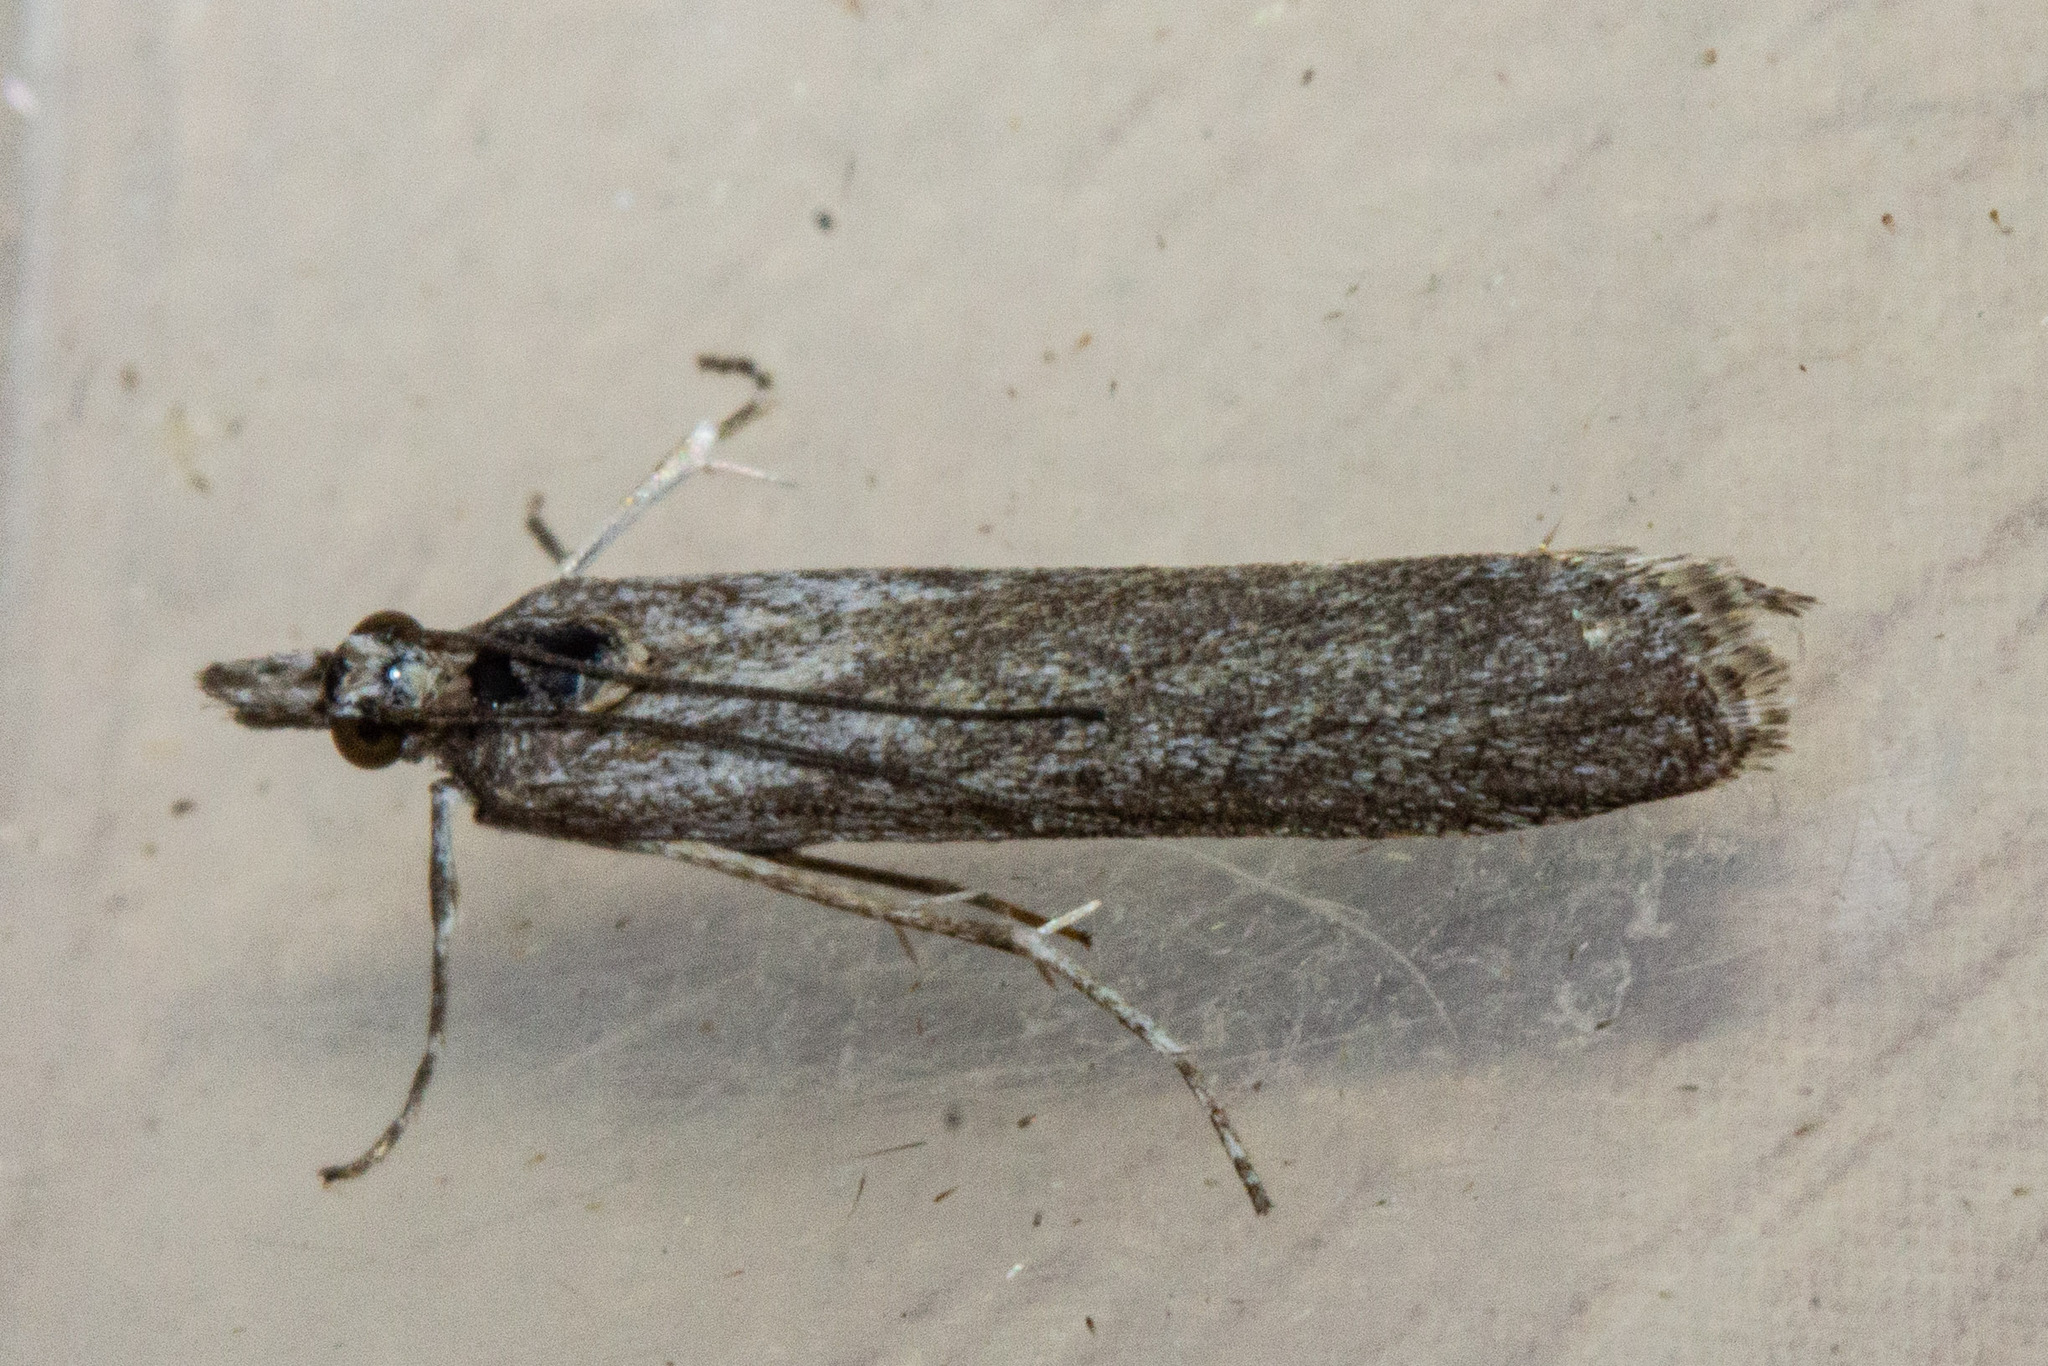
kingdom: Animalia
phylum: Arthropoda
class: Insecta
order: Lepidoptera
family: Crambidae
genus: Eudonia
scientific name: Eudonia leptalea
